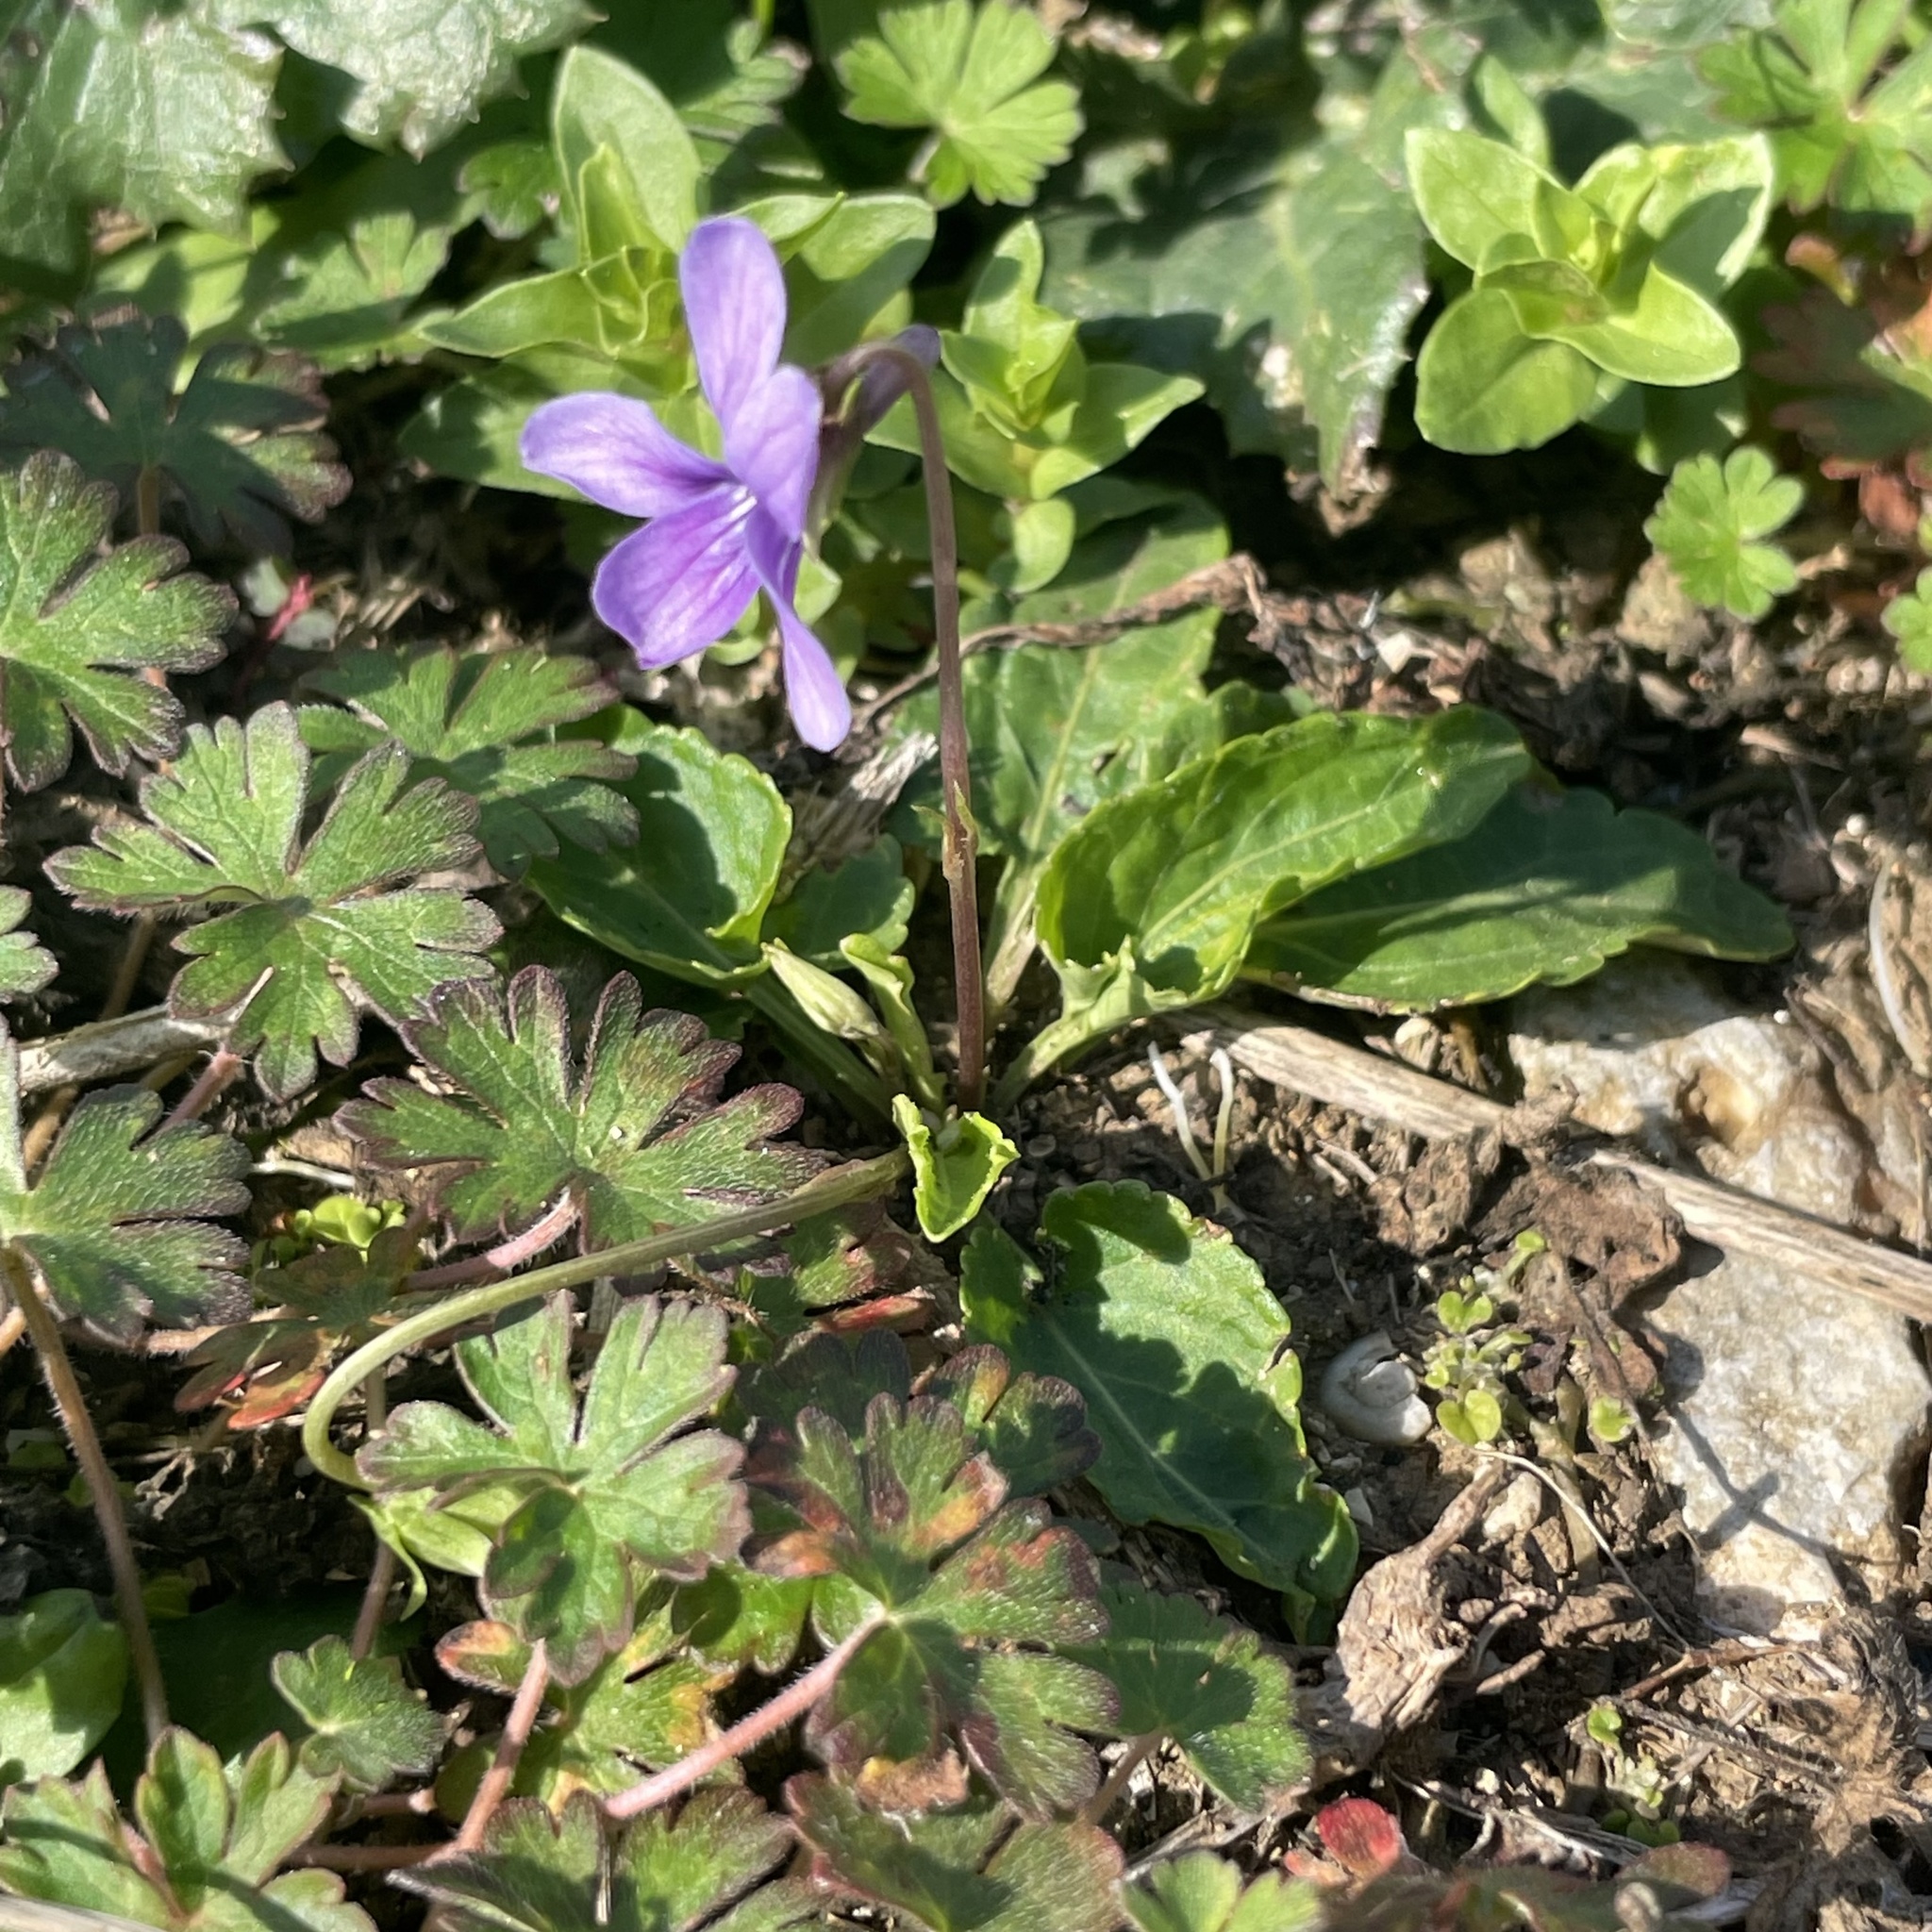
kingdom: Plantae
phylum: Tracheophyta
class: Magnoliopsida
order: Malpighiales
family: Violaceae
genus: Viola
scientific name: Viola philippica
